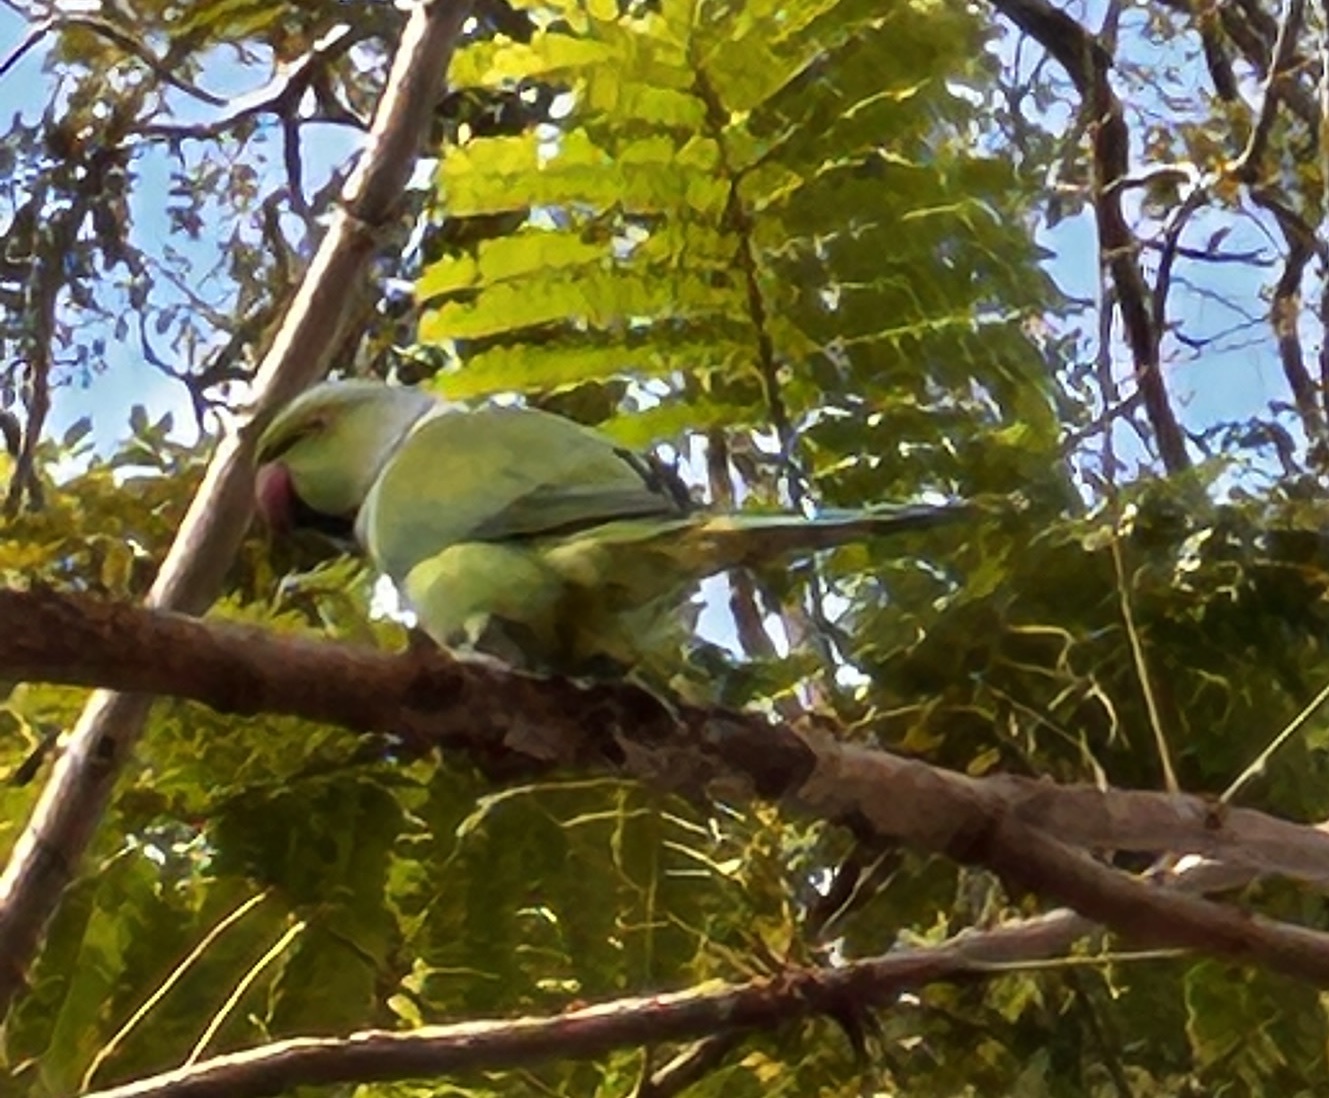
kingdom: Animalia
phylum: Chordata
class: Aves
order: Psittaciformes
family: Psittacidae
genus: Psittacula
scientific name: Psittacula krameri
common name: Rose-ringed parakeet
